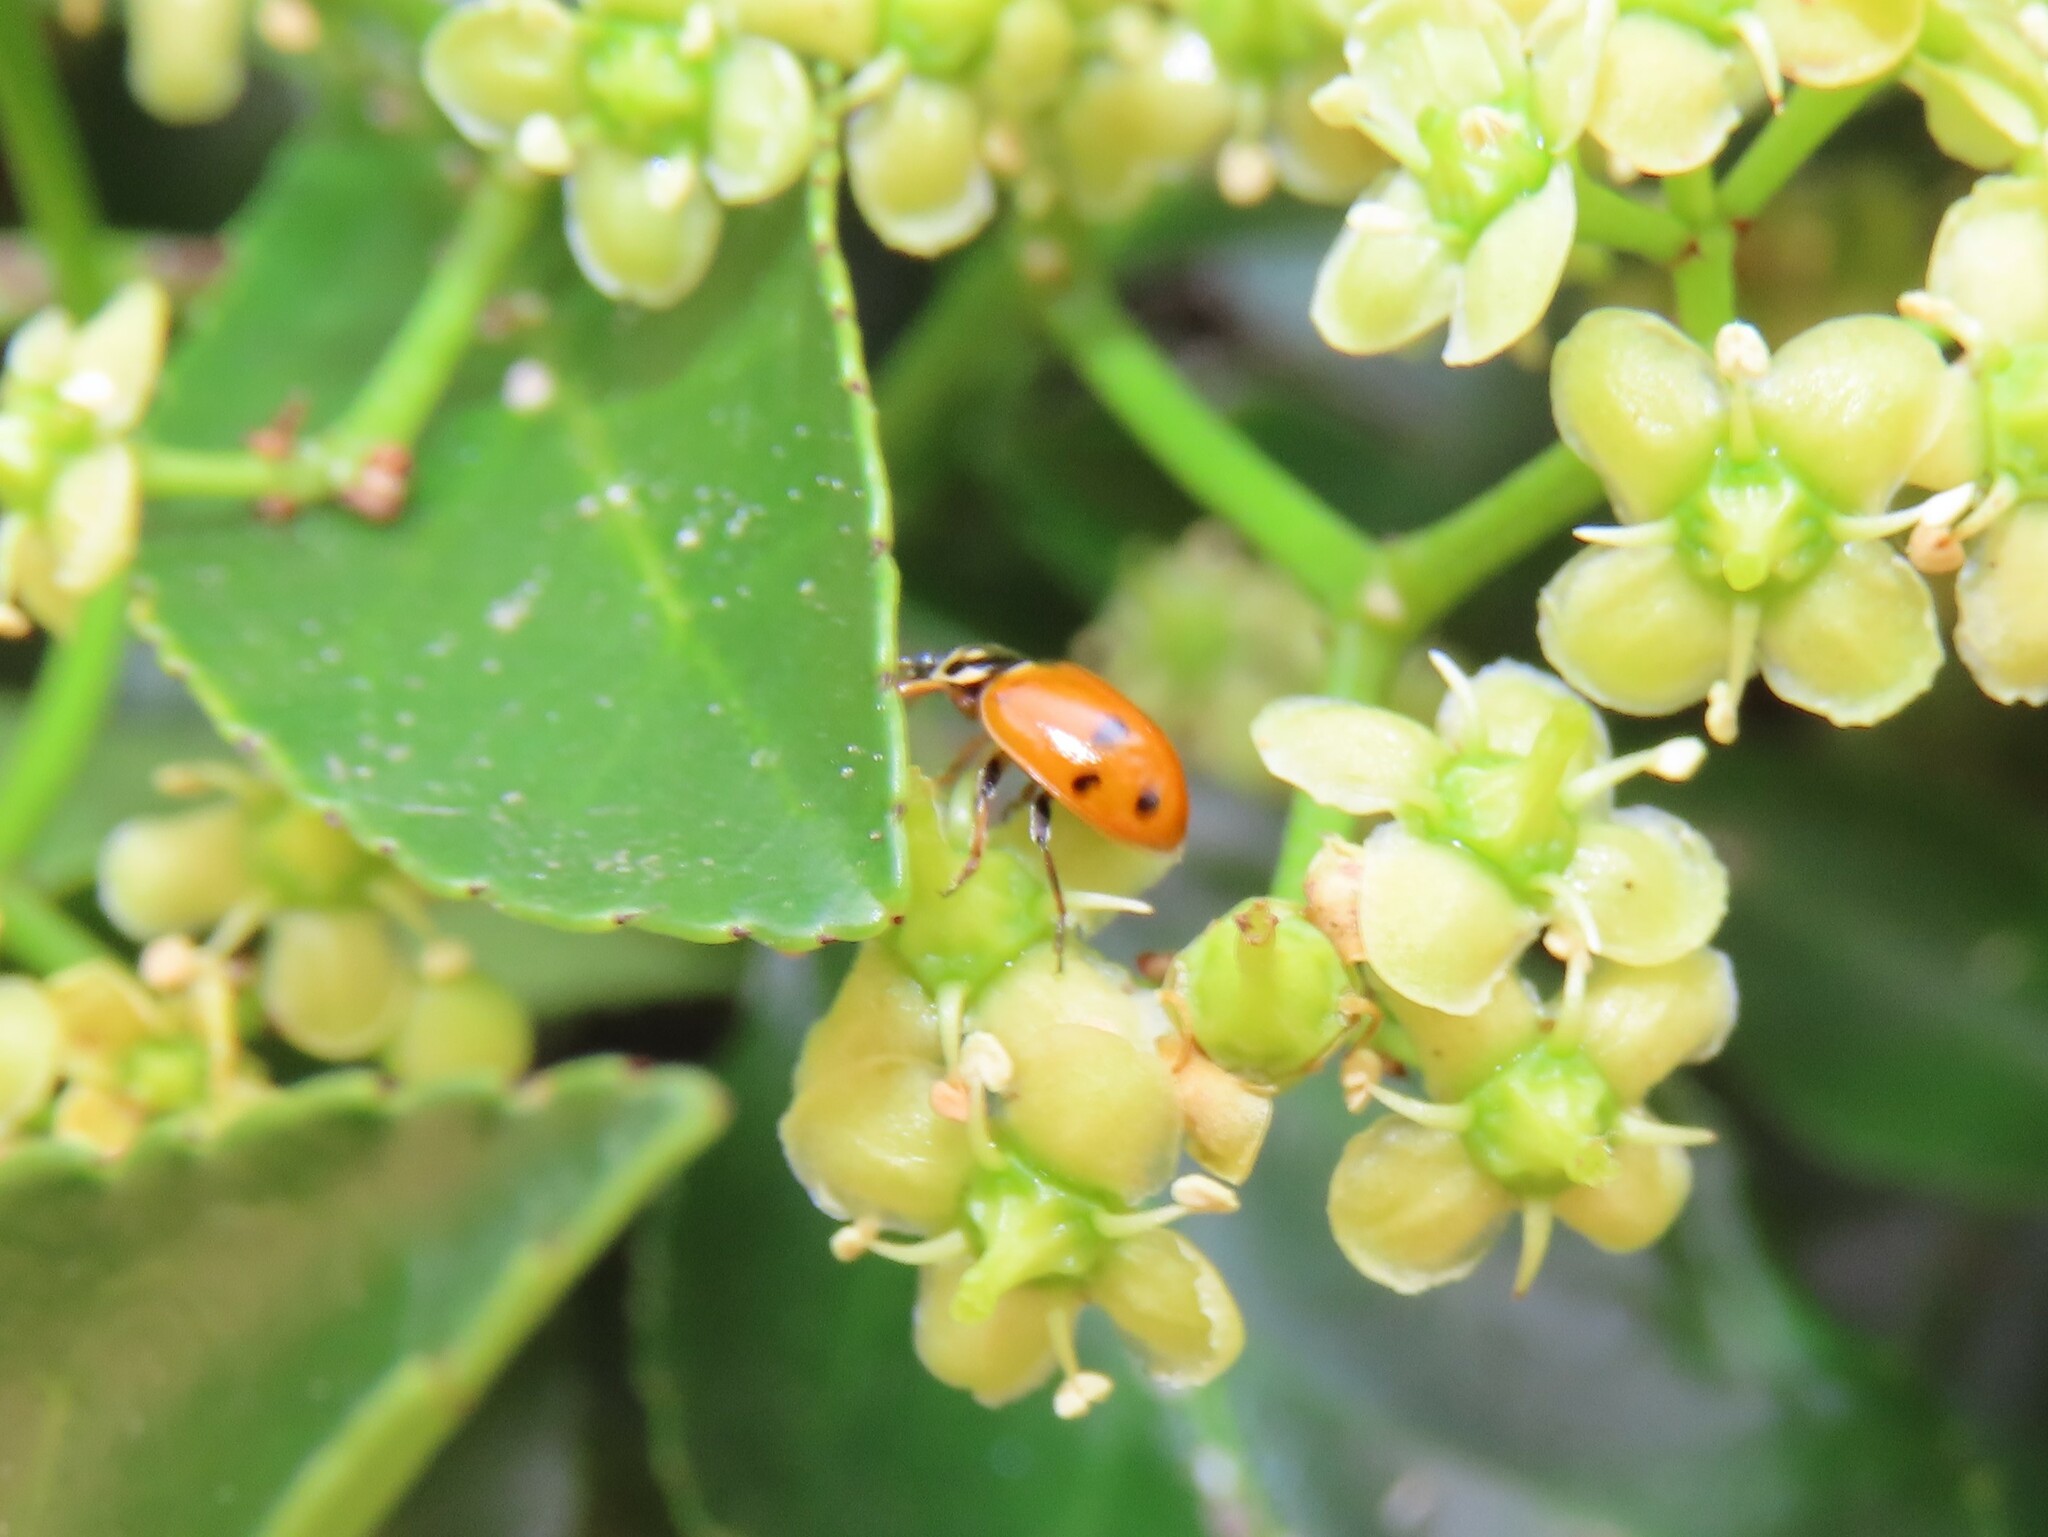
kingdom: Animalia
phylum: Arthropoda
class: Insecta
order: Coleoptera
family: Coccinellidae
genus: Hippodamia
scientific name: Hippodamia variegata
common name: Ladybird beetle
